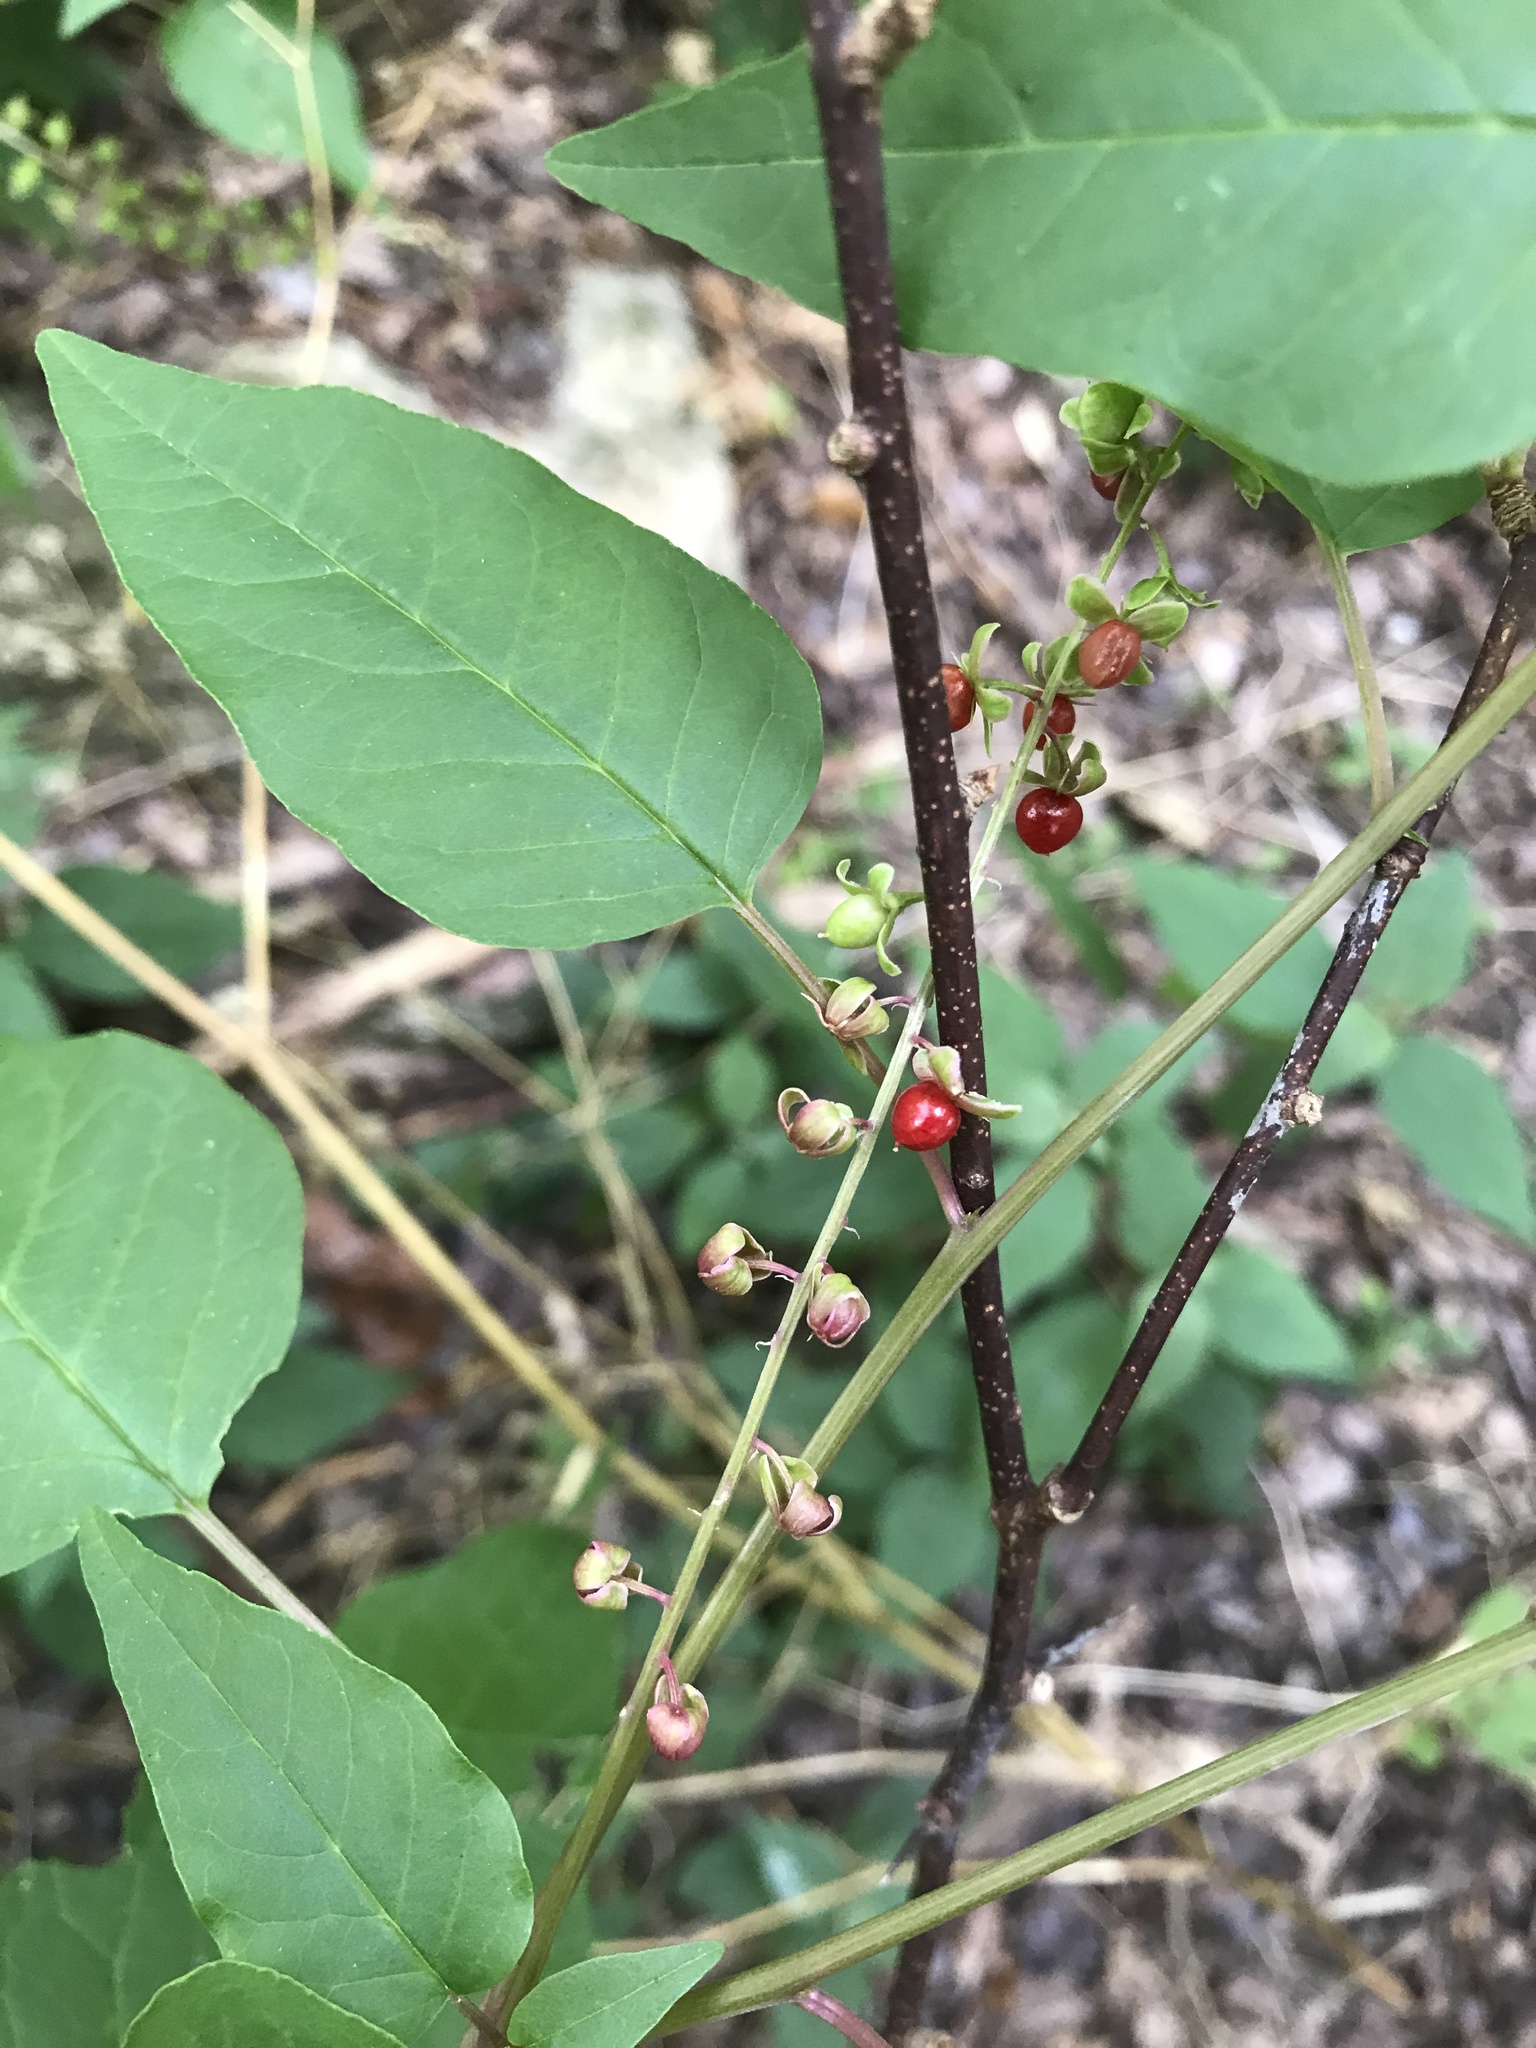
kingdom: Plantae
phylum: Tracheophyta
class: Magnoliopsida
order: Caryophyllales
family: Phytolaccaceae
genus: Rivina
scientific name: Rivina humilis
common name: Rougeplant
